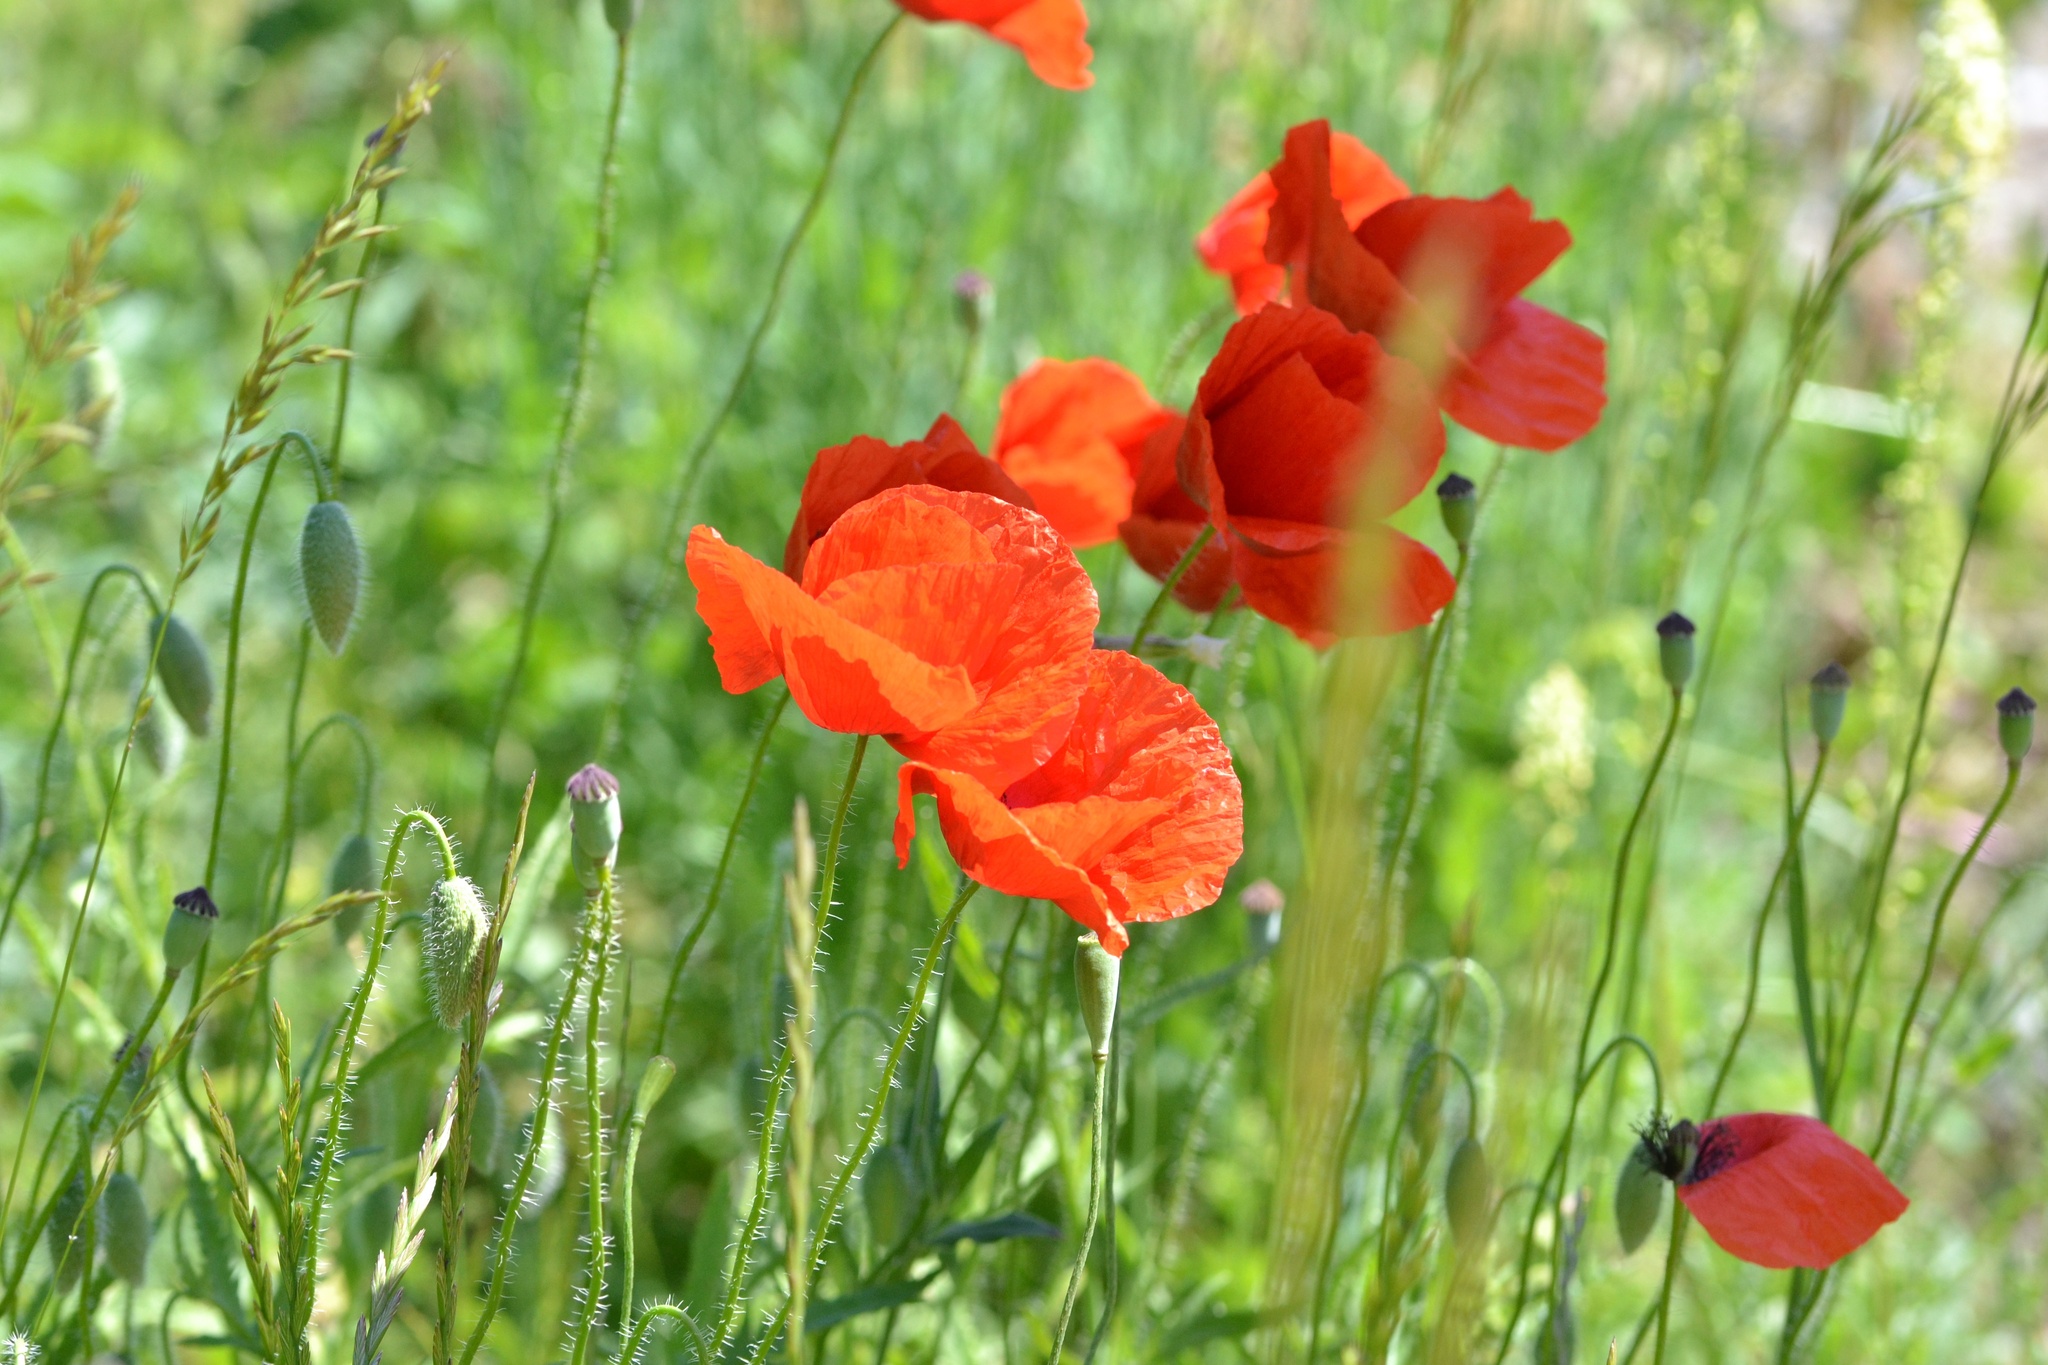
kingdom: Plantae
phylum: Tracheophyta
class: Magnoliopsida
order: Ranunculales
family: Papaveraceae
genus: Papaver
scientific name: Papaver rhoeas
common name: Corn poppy
